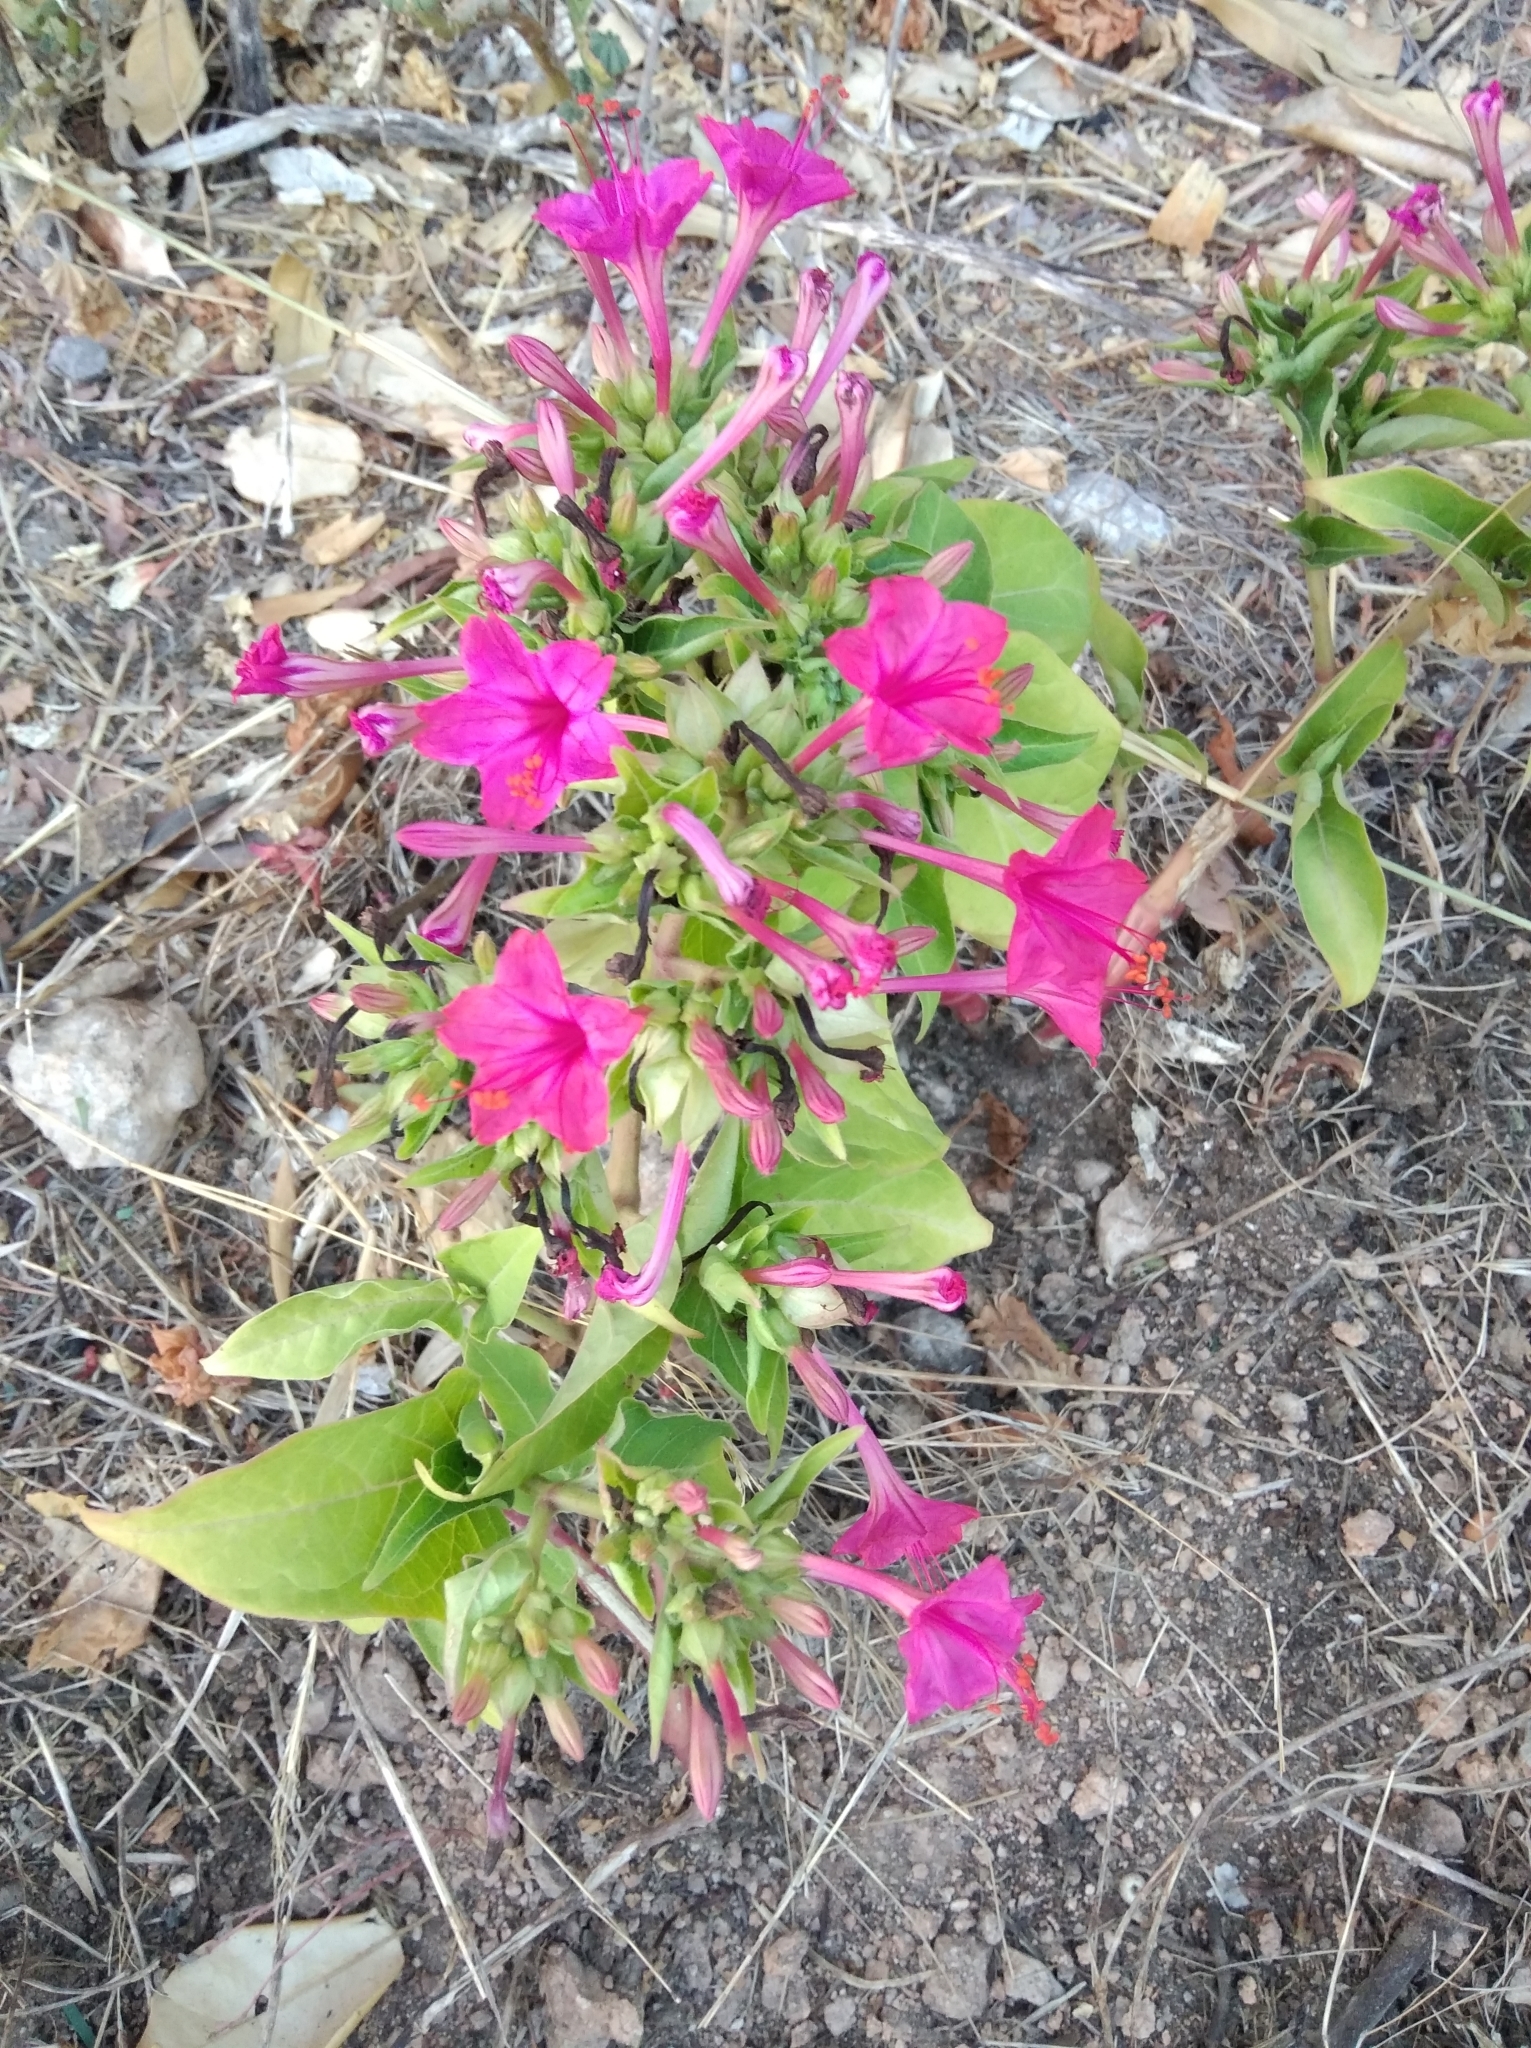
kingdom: Plantae
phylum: Tracheophyta
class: Magnoliopsida
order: Caryophyllales
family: Nyctaginaceae
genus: Mirabilis
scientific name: Mirabilis jalapa
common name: Marvel-of-peru
